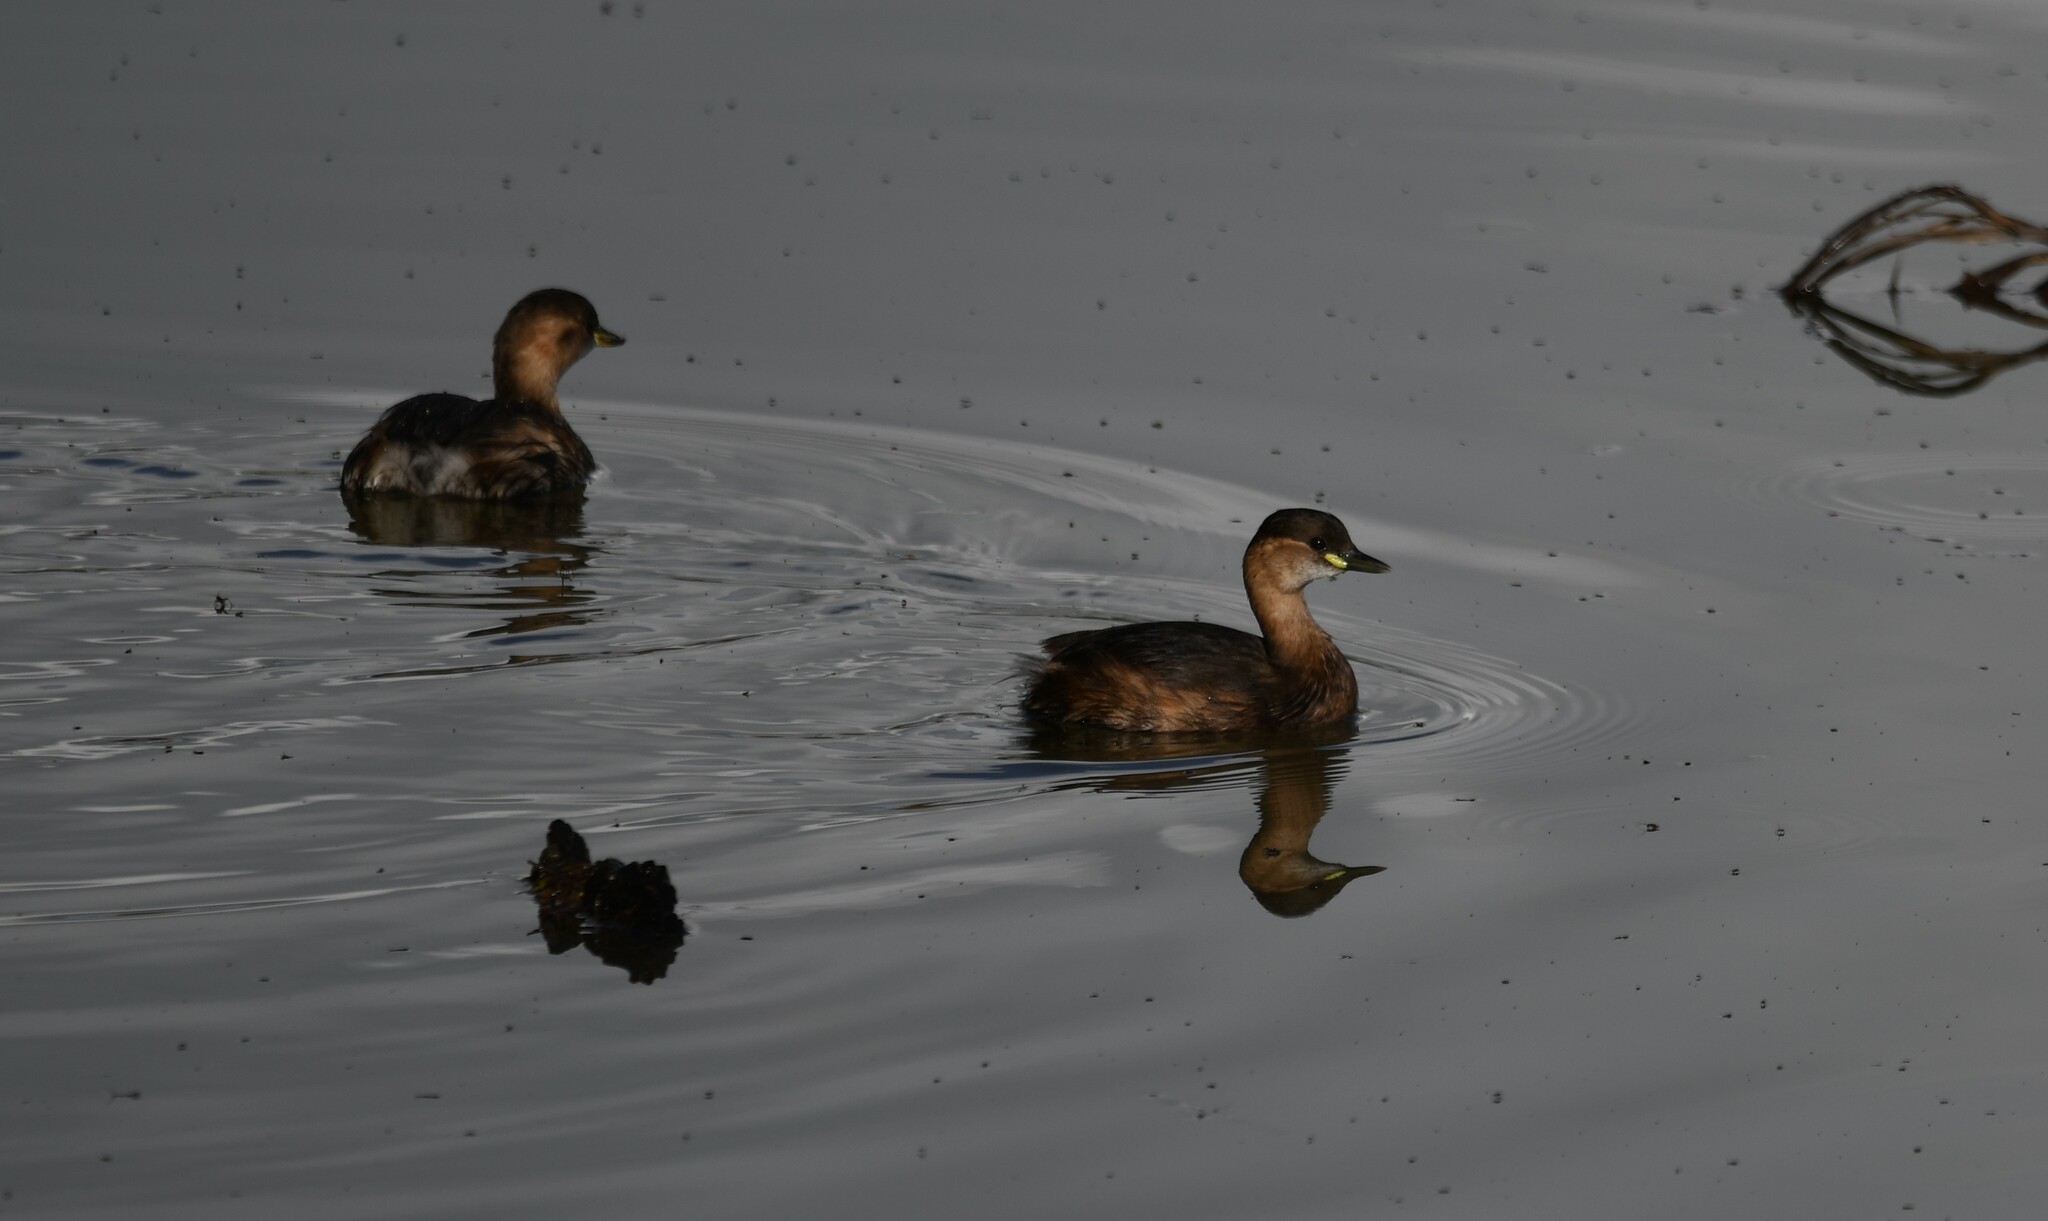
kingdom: Animalia
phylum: Chordata
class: Aves
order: Podicipediformes
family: Podicipedidae
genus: Tachybaptus
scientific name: Tachybaptus ruficollis
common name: Little grebe
